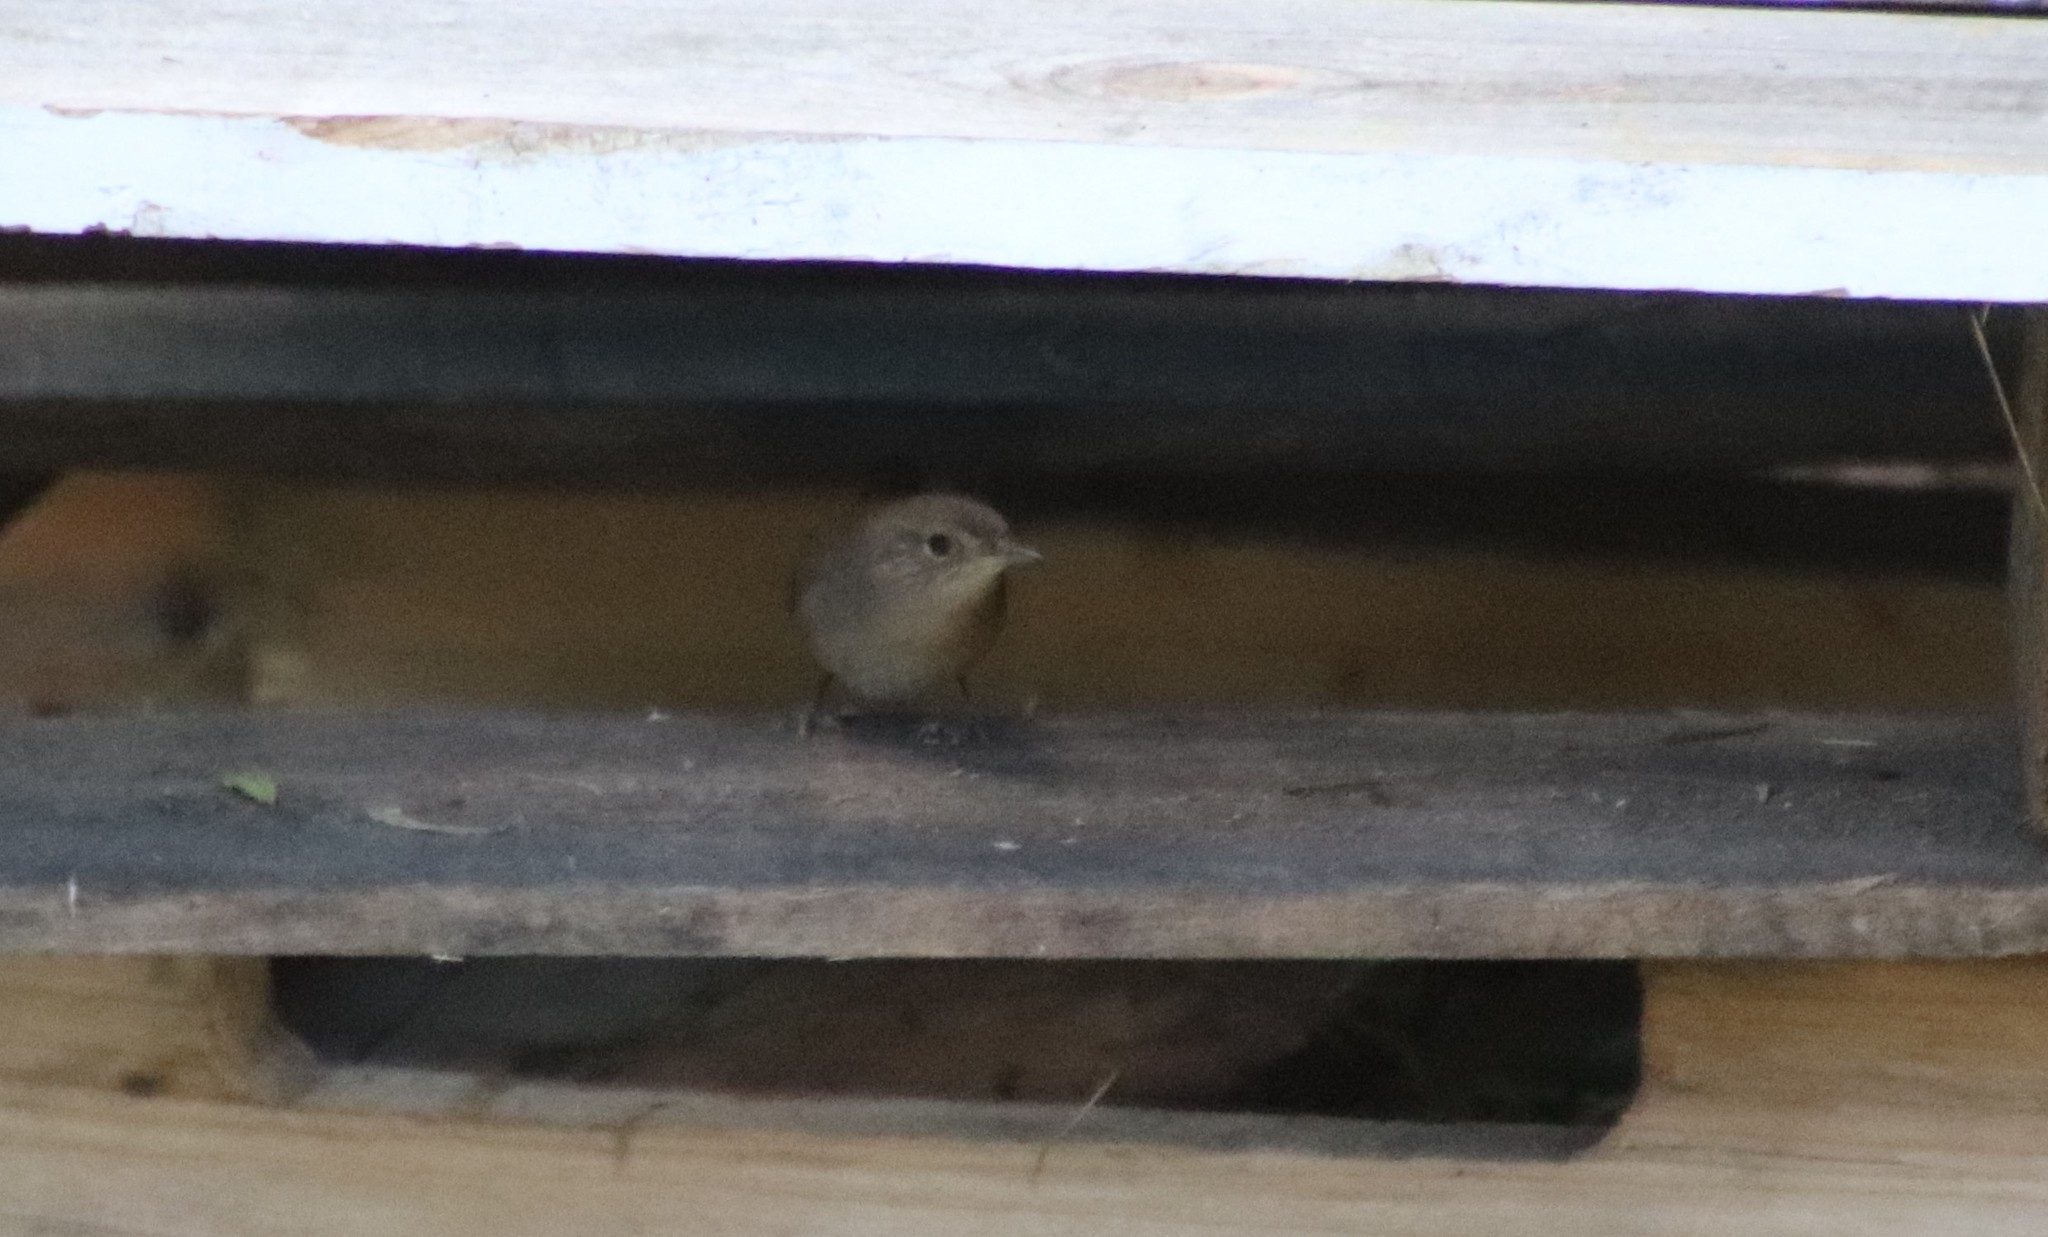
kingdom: Animalia
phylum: Chordata
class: Aves
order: Passeriformes
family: Troglodytidae
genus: Troglodytes
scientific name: Troglodytes aedon
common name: House wren
